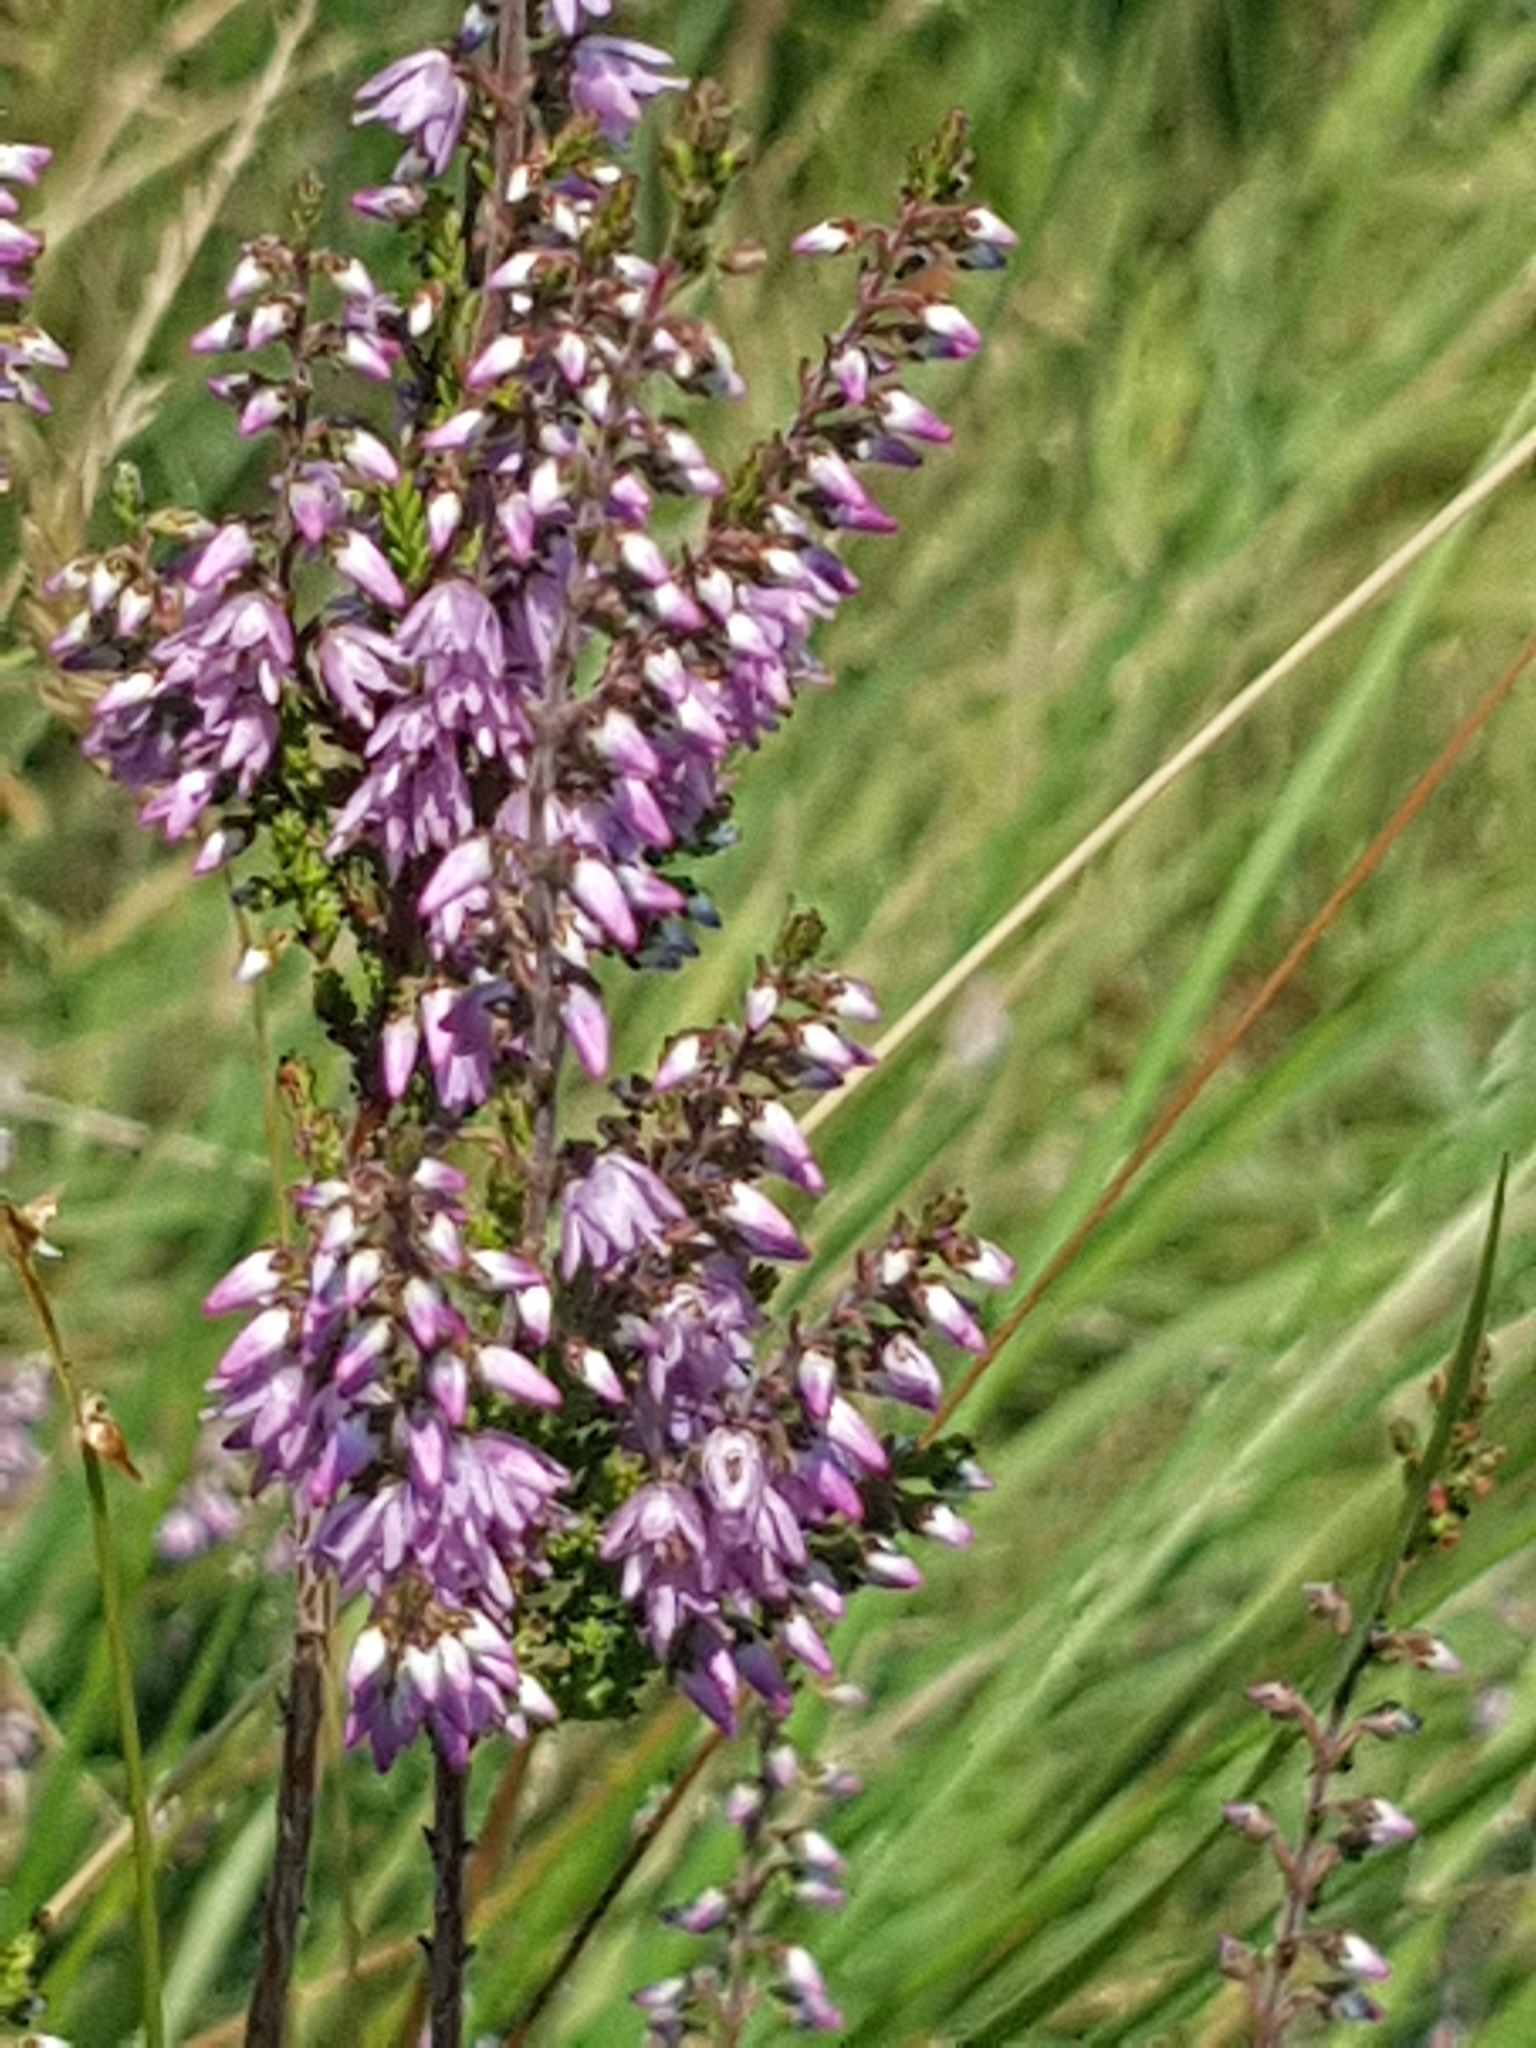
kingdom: Plantae
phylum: Tracheophyta
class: Magnoliopsida
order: Ericales
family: Ericaceae
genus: Calluna
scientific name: Calluna vulgaris
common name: Heather
